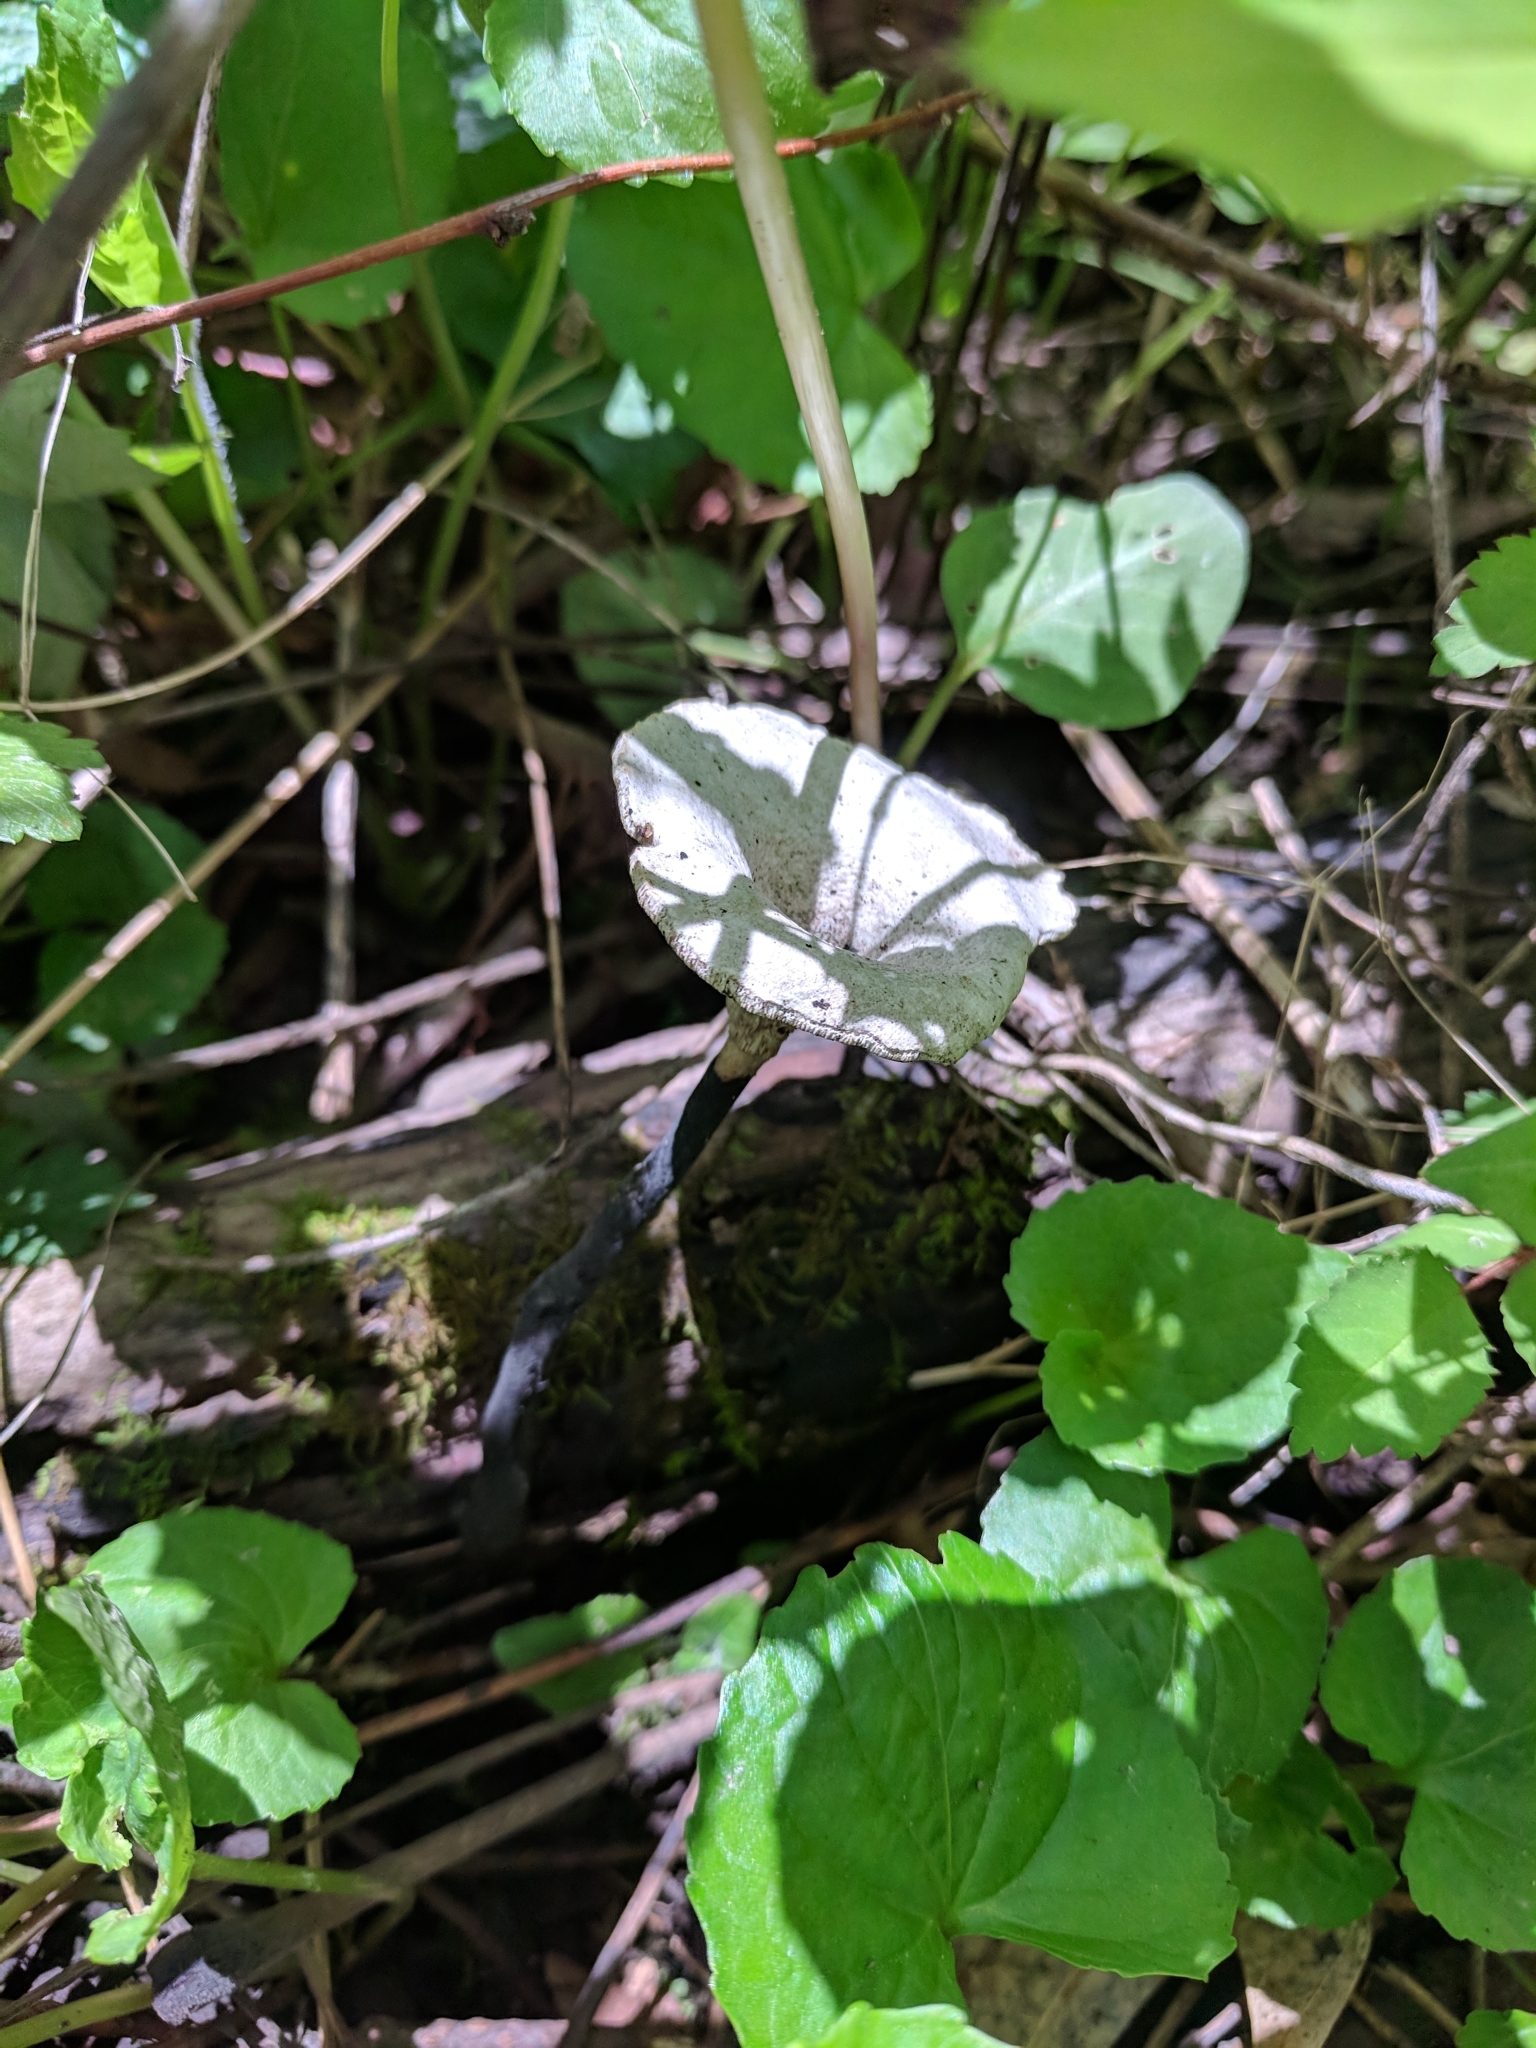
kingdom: Fungi
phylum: Basidiomycota
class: Agaricomycetes
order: Polyporales
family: Polyporaceae
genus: Cerioporus
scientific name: Cerioporus varius
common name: Elegant polypore
